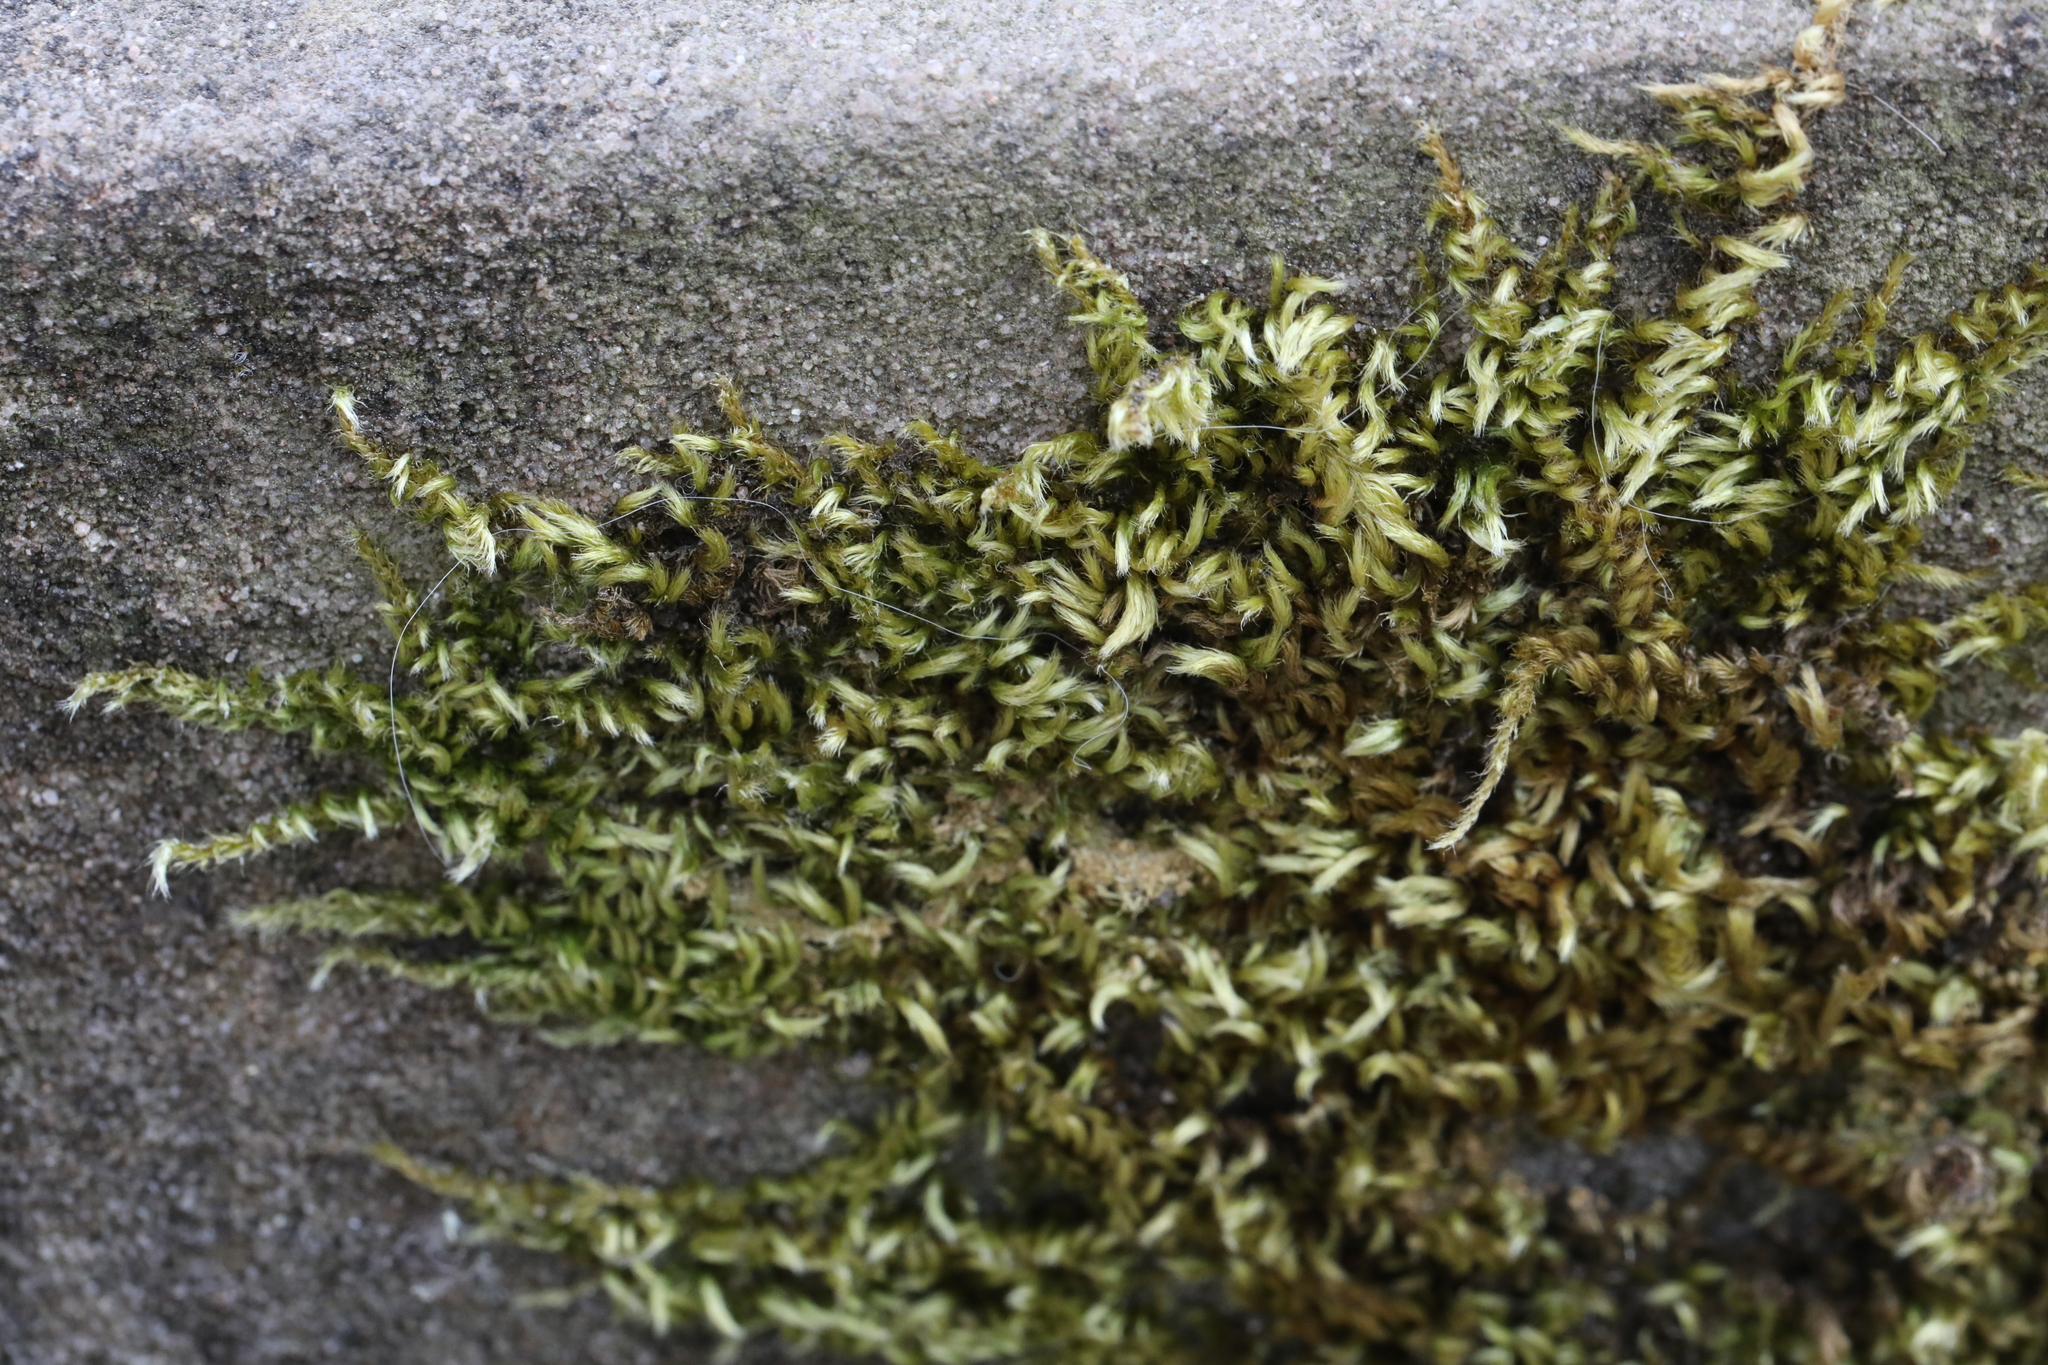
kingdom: Plantae
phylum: Bryophyta
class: Bryopsida
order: Hypnales
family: Brachytheciaceae
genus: Homalothecium
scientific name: Homalothecium sericeum
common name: Silky wall feather-moss
